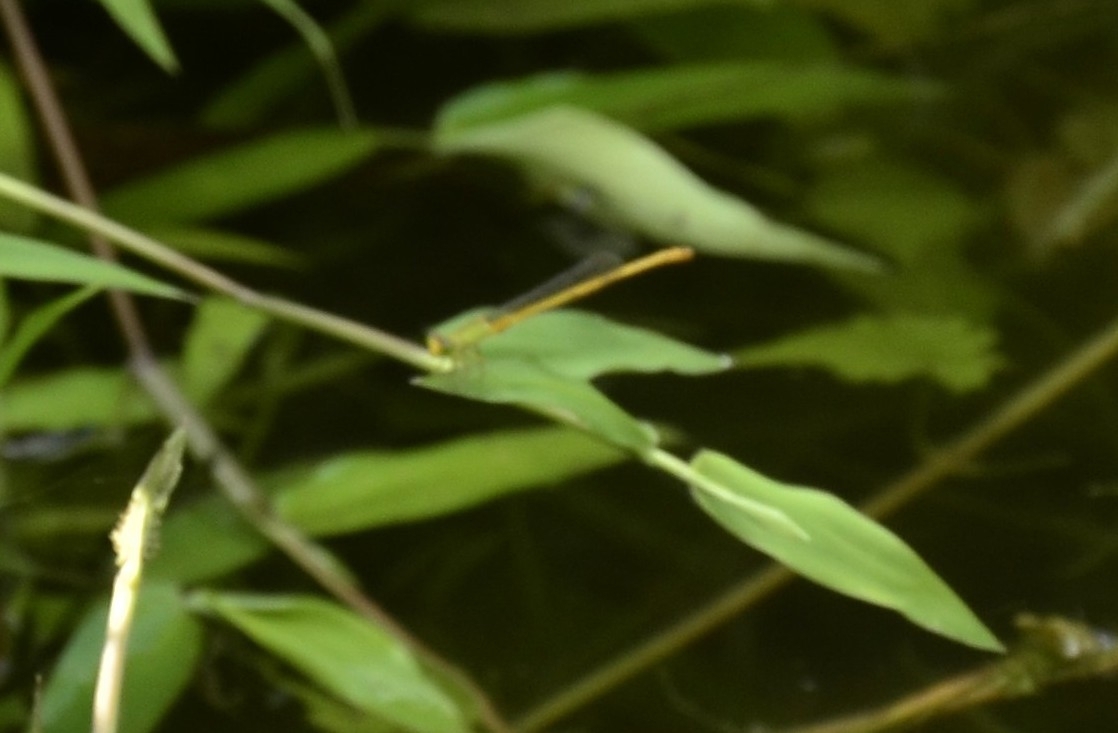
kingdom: Animalia
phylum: Arthropoda
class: Insecta
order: Odonata
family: Coenagrionidae
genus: Ceriagrion
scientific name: Ceriagrion coromandelianum
